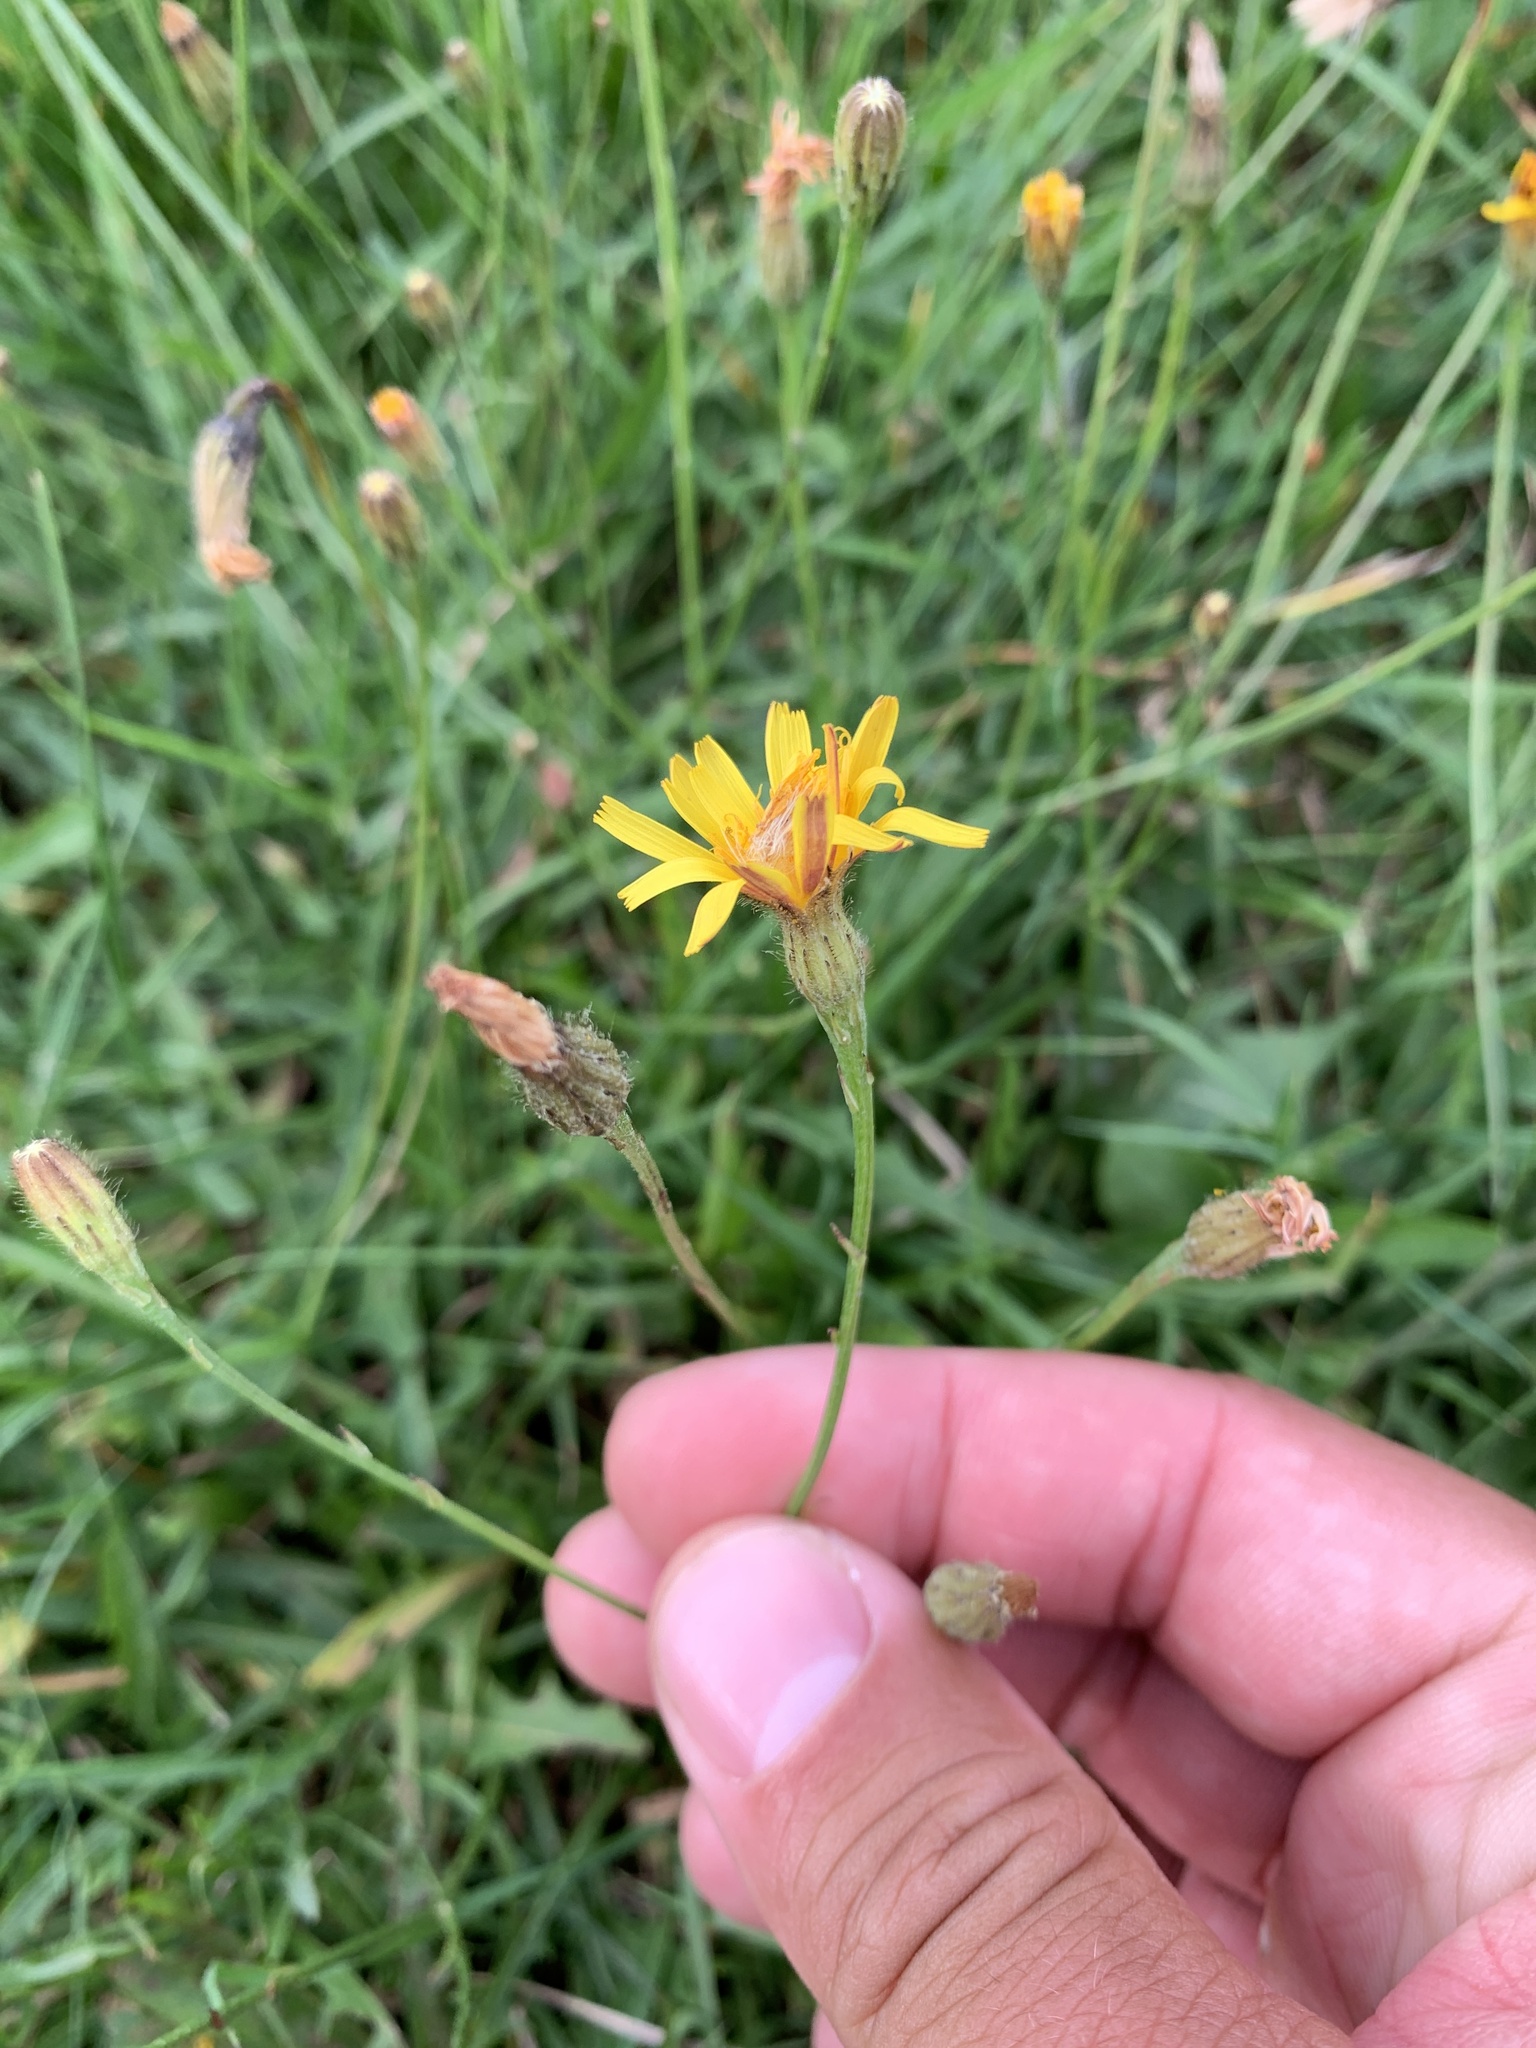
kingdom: Plantae
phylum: Tracheophyta
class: Magnoliopsida
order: Asterales
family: Asteraceae
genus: Scorzoneroides
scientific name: Scorzoneroides autumnalis
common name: Autumn hawkbit
